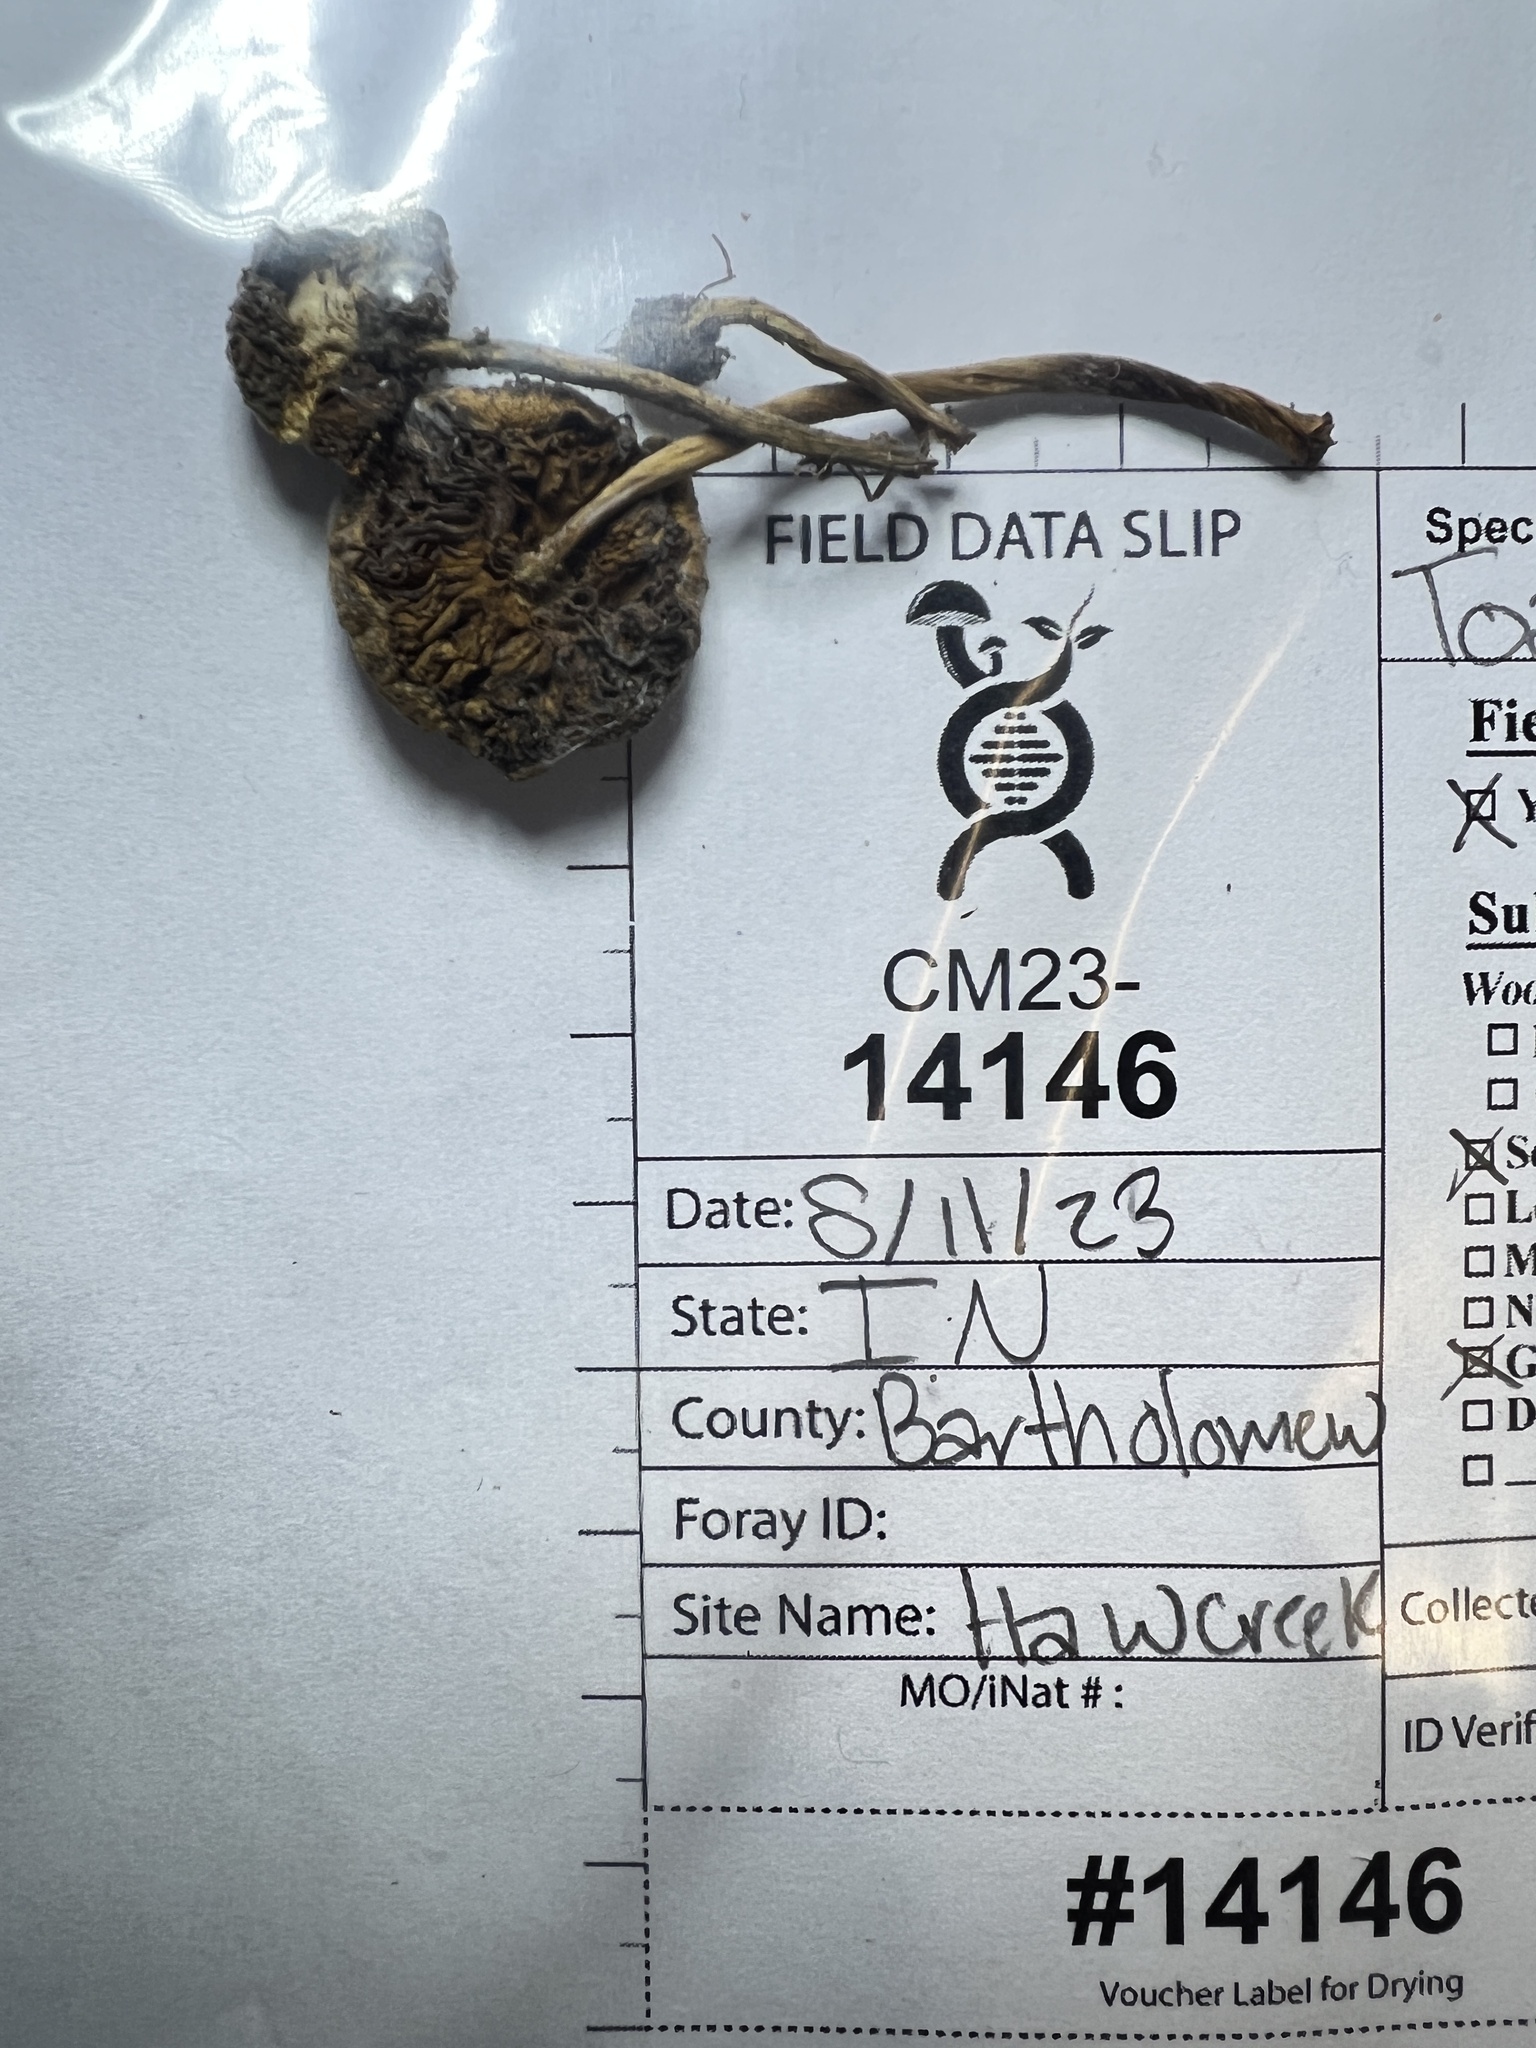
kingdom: Fungi
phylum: Basidiomycota
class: Agaricomycetes
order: Agaricales
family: Strophariaceae
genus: Agrocybe
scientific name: Agrocybe molesta
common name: Bearded fieldcap
